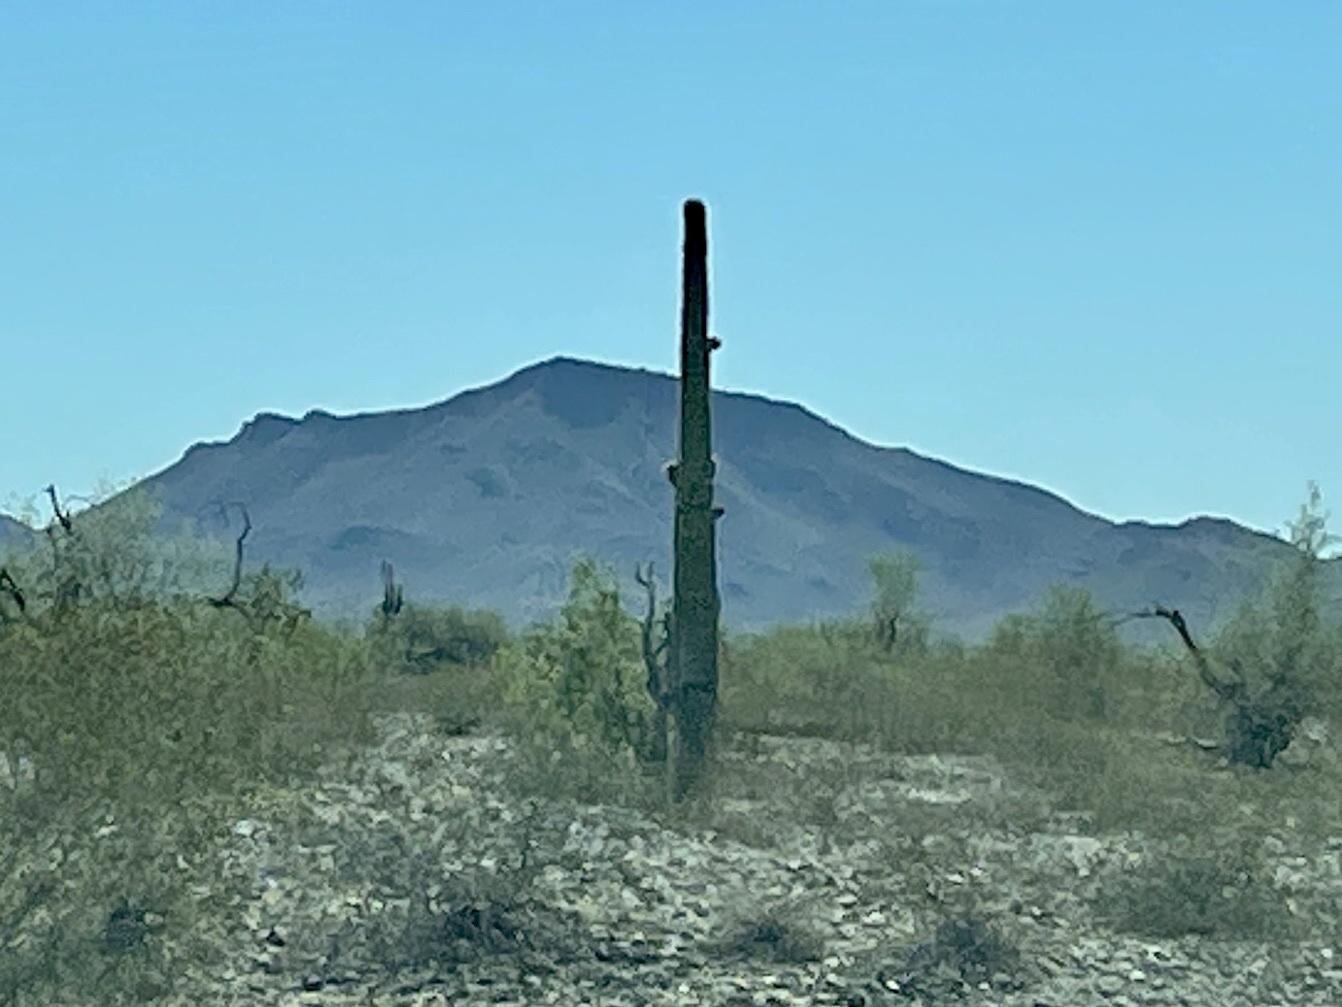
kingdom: Plantae
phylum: Tracheophyta
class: Magnoliopsida
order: Caryophyllales
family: Cactaceae
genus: Carnegiea
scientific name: Carnegiea gigantea
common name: Saguaro
